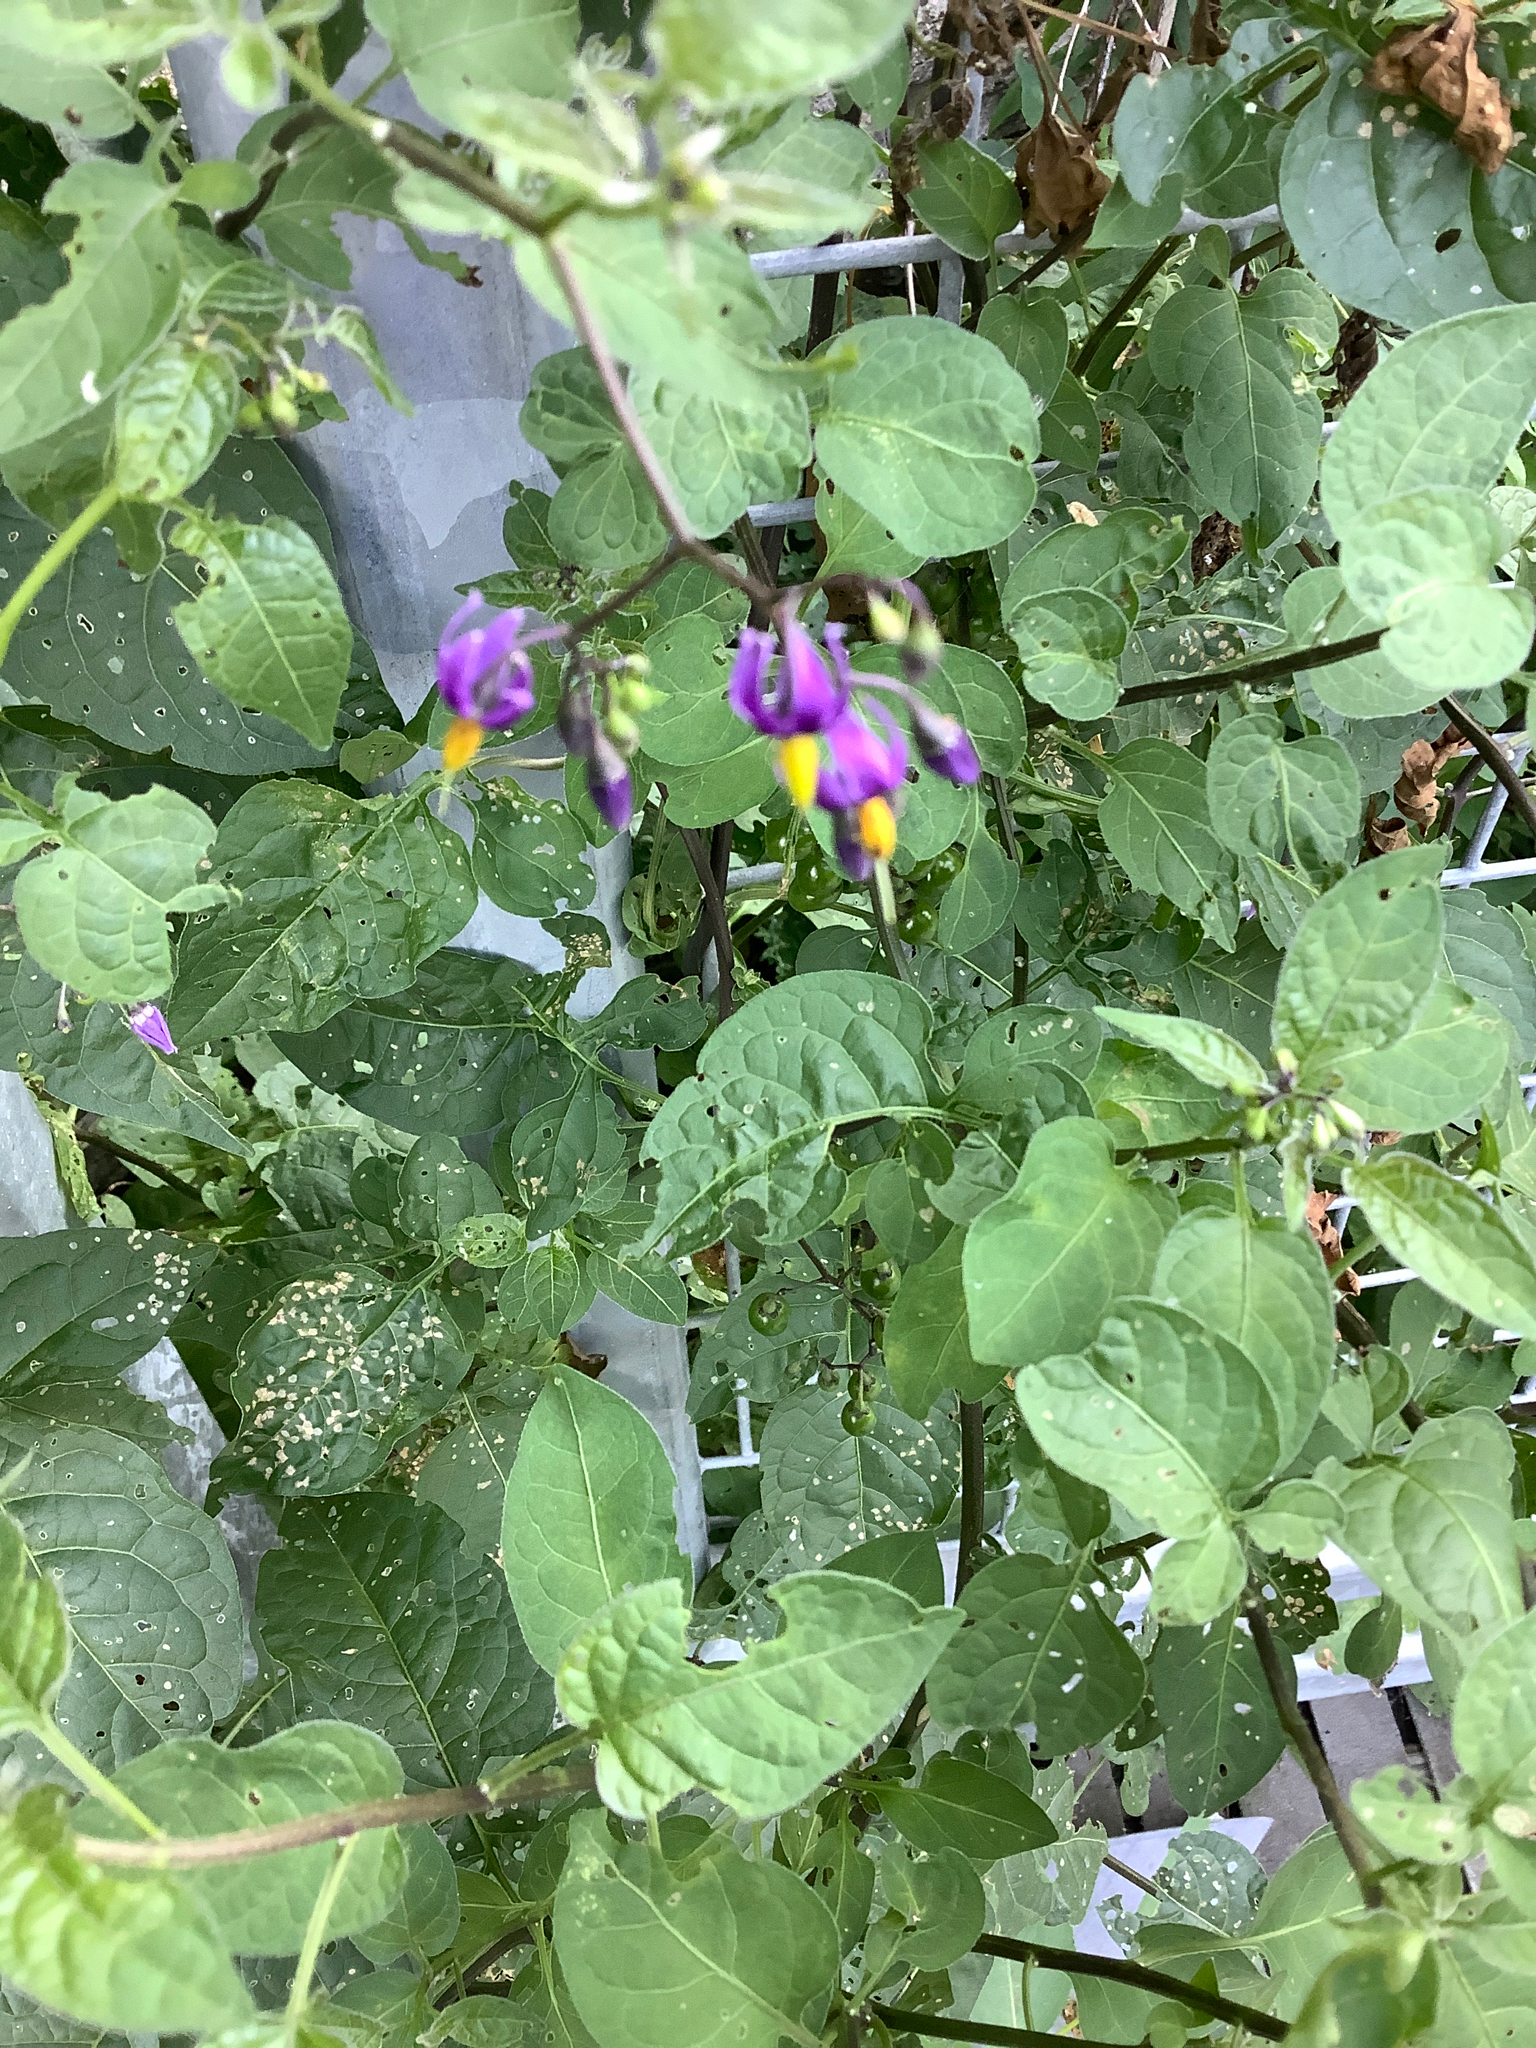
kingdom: Plantae
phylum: Tracheophyta
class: Magnoliopsida
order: Solanales
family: Solanaceae
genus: Solanum
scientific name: Solanum dulcamara
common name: Climbing nightshade
